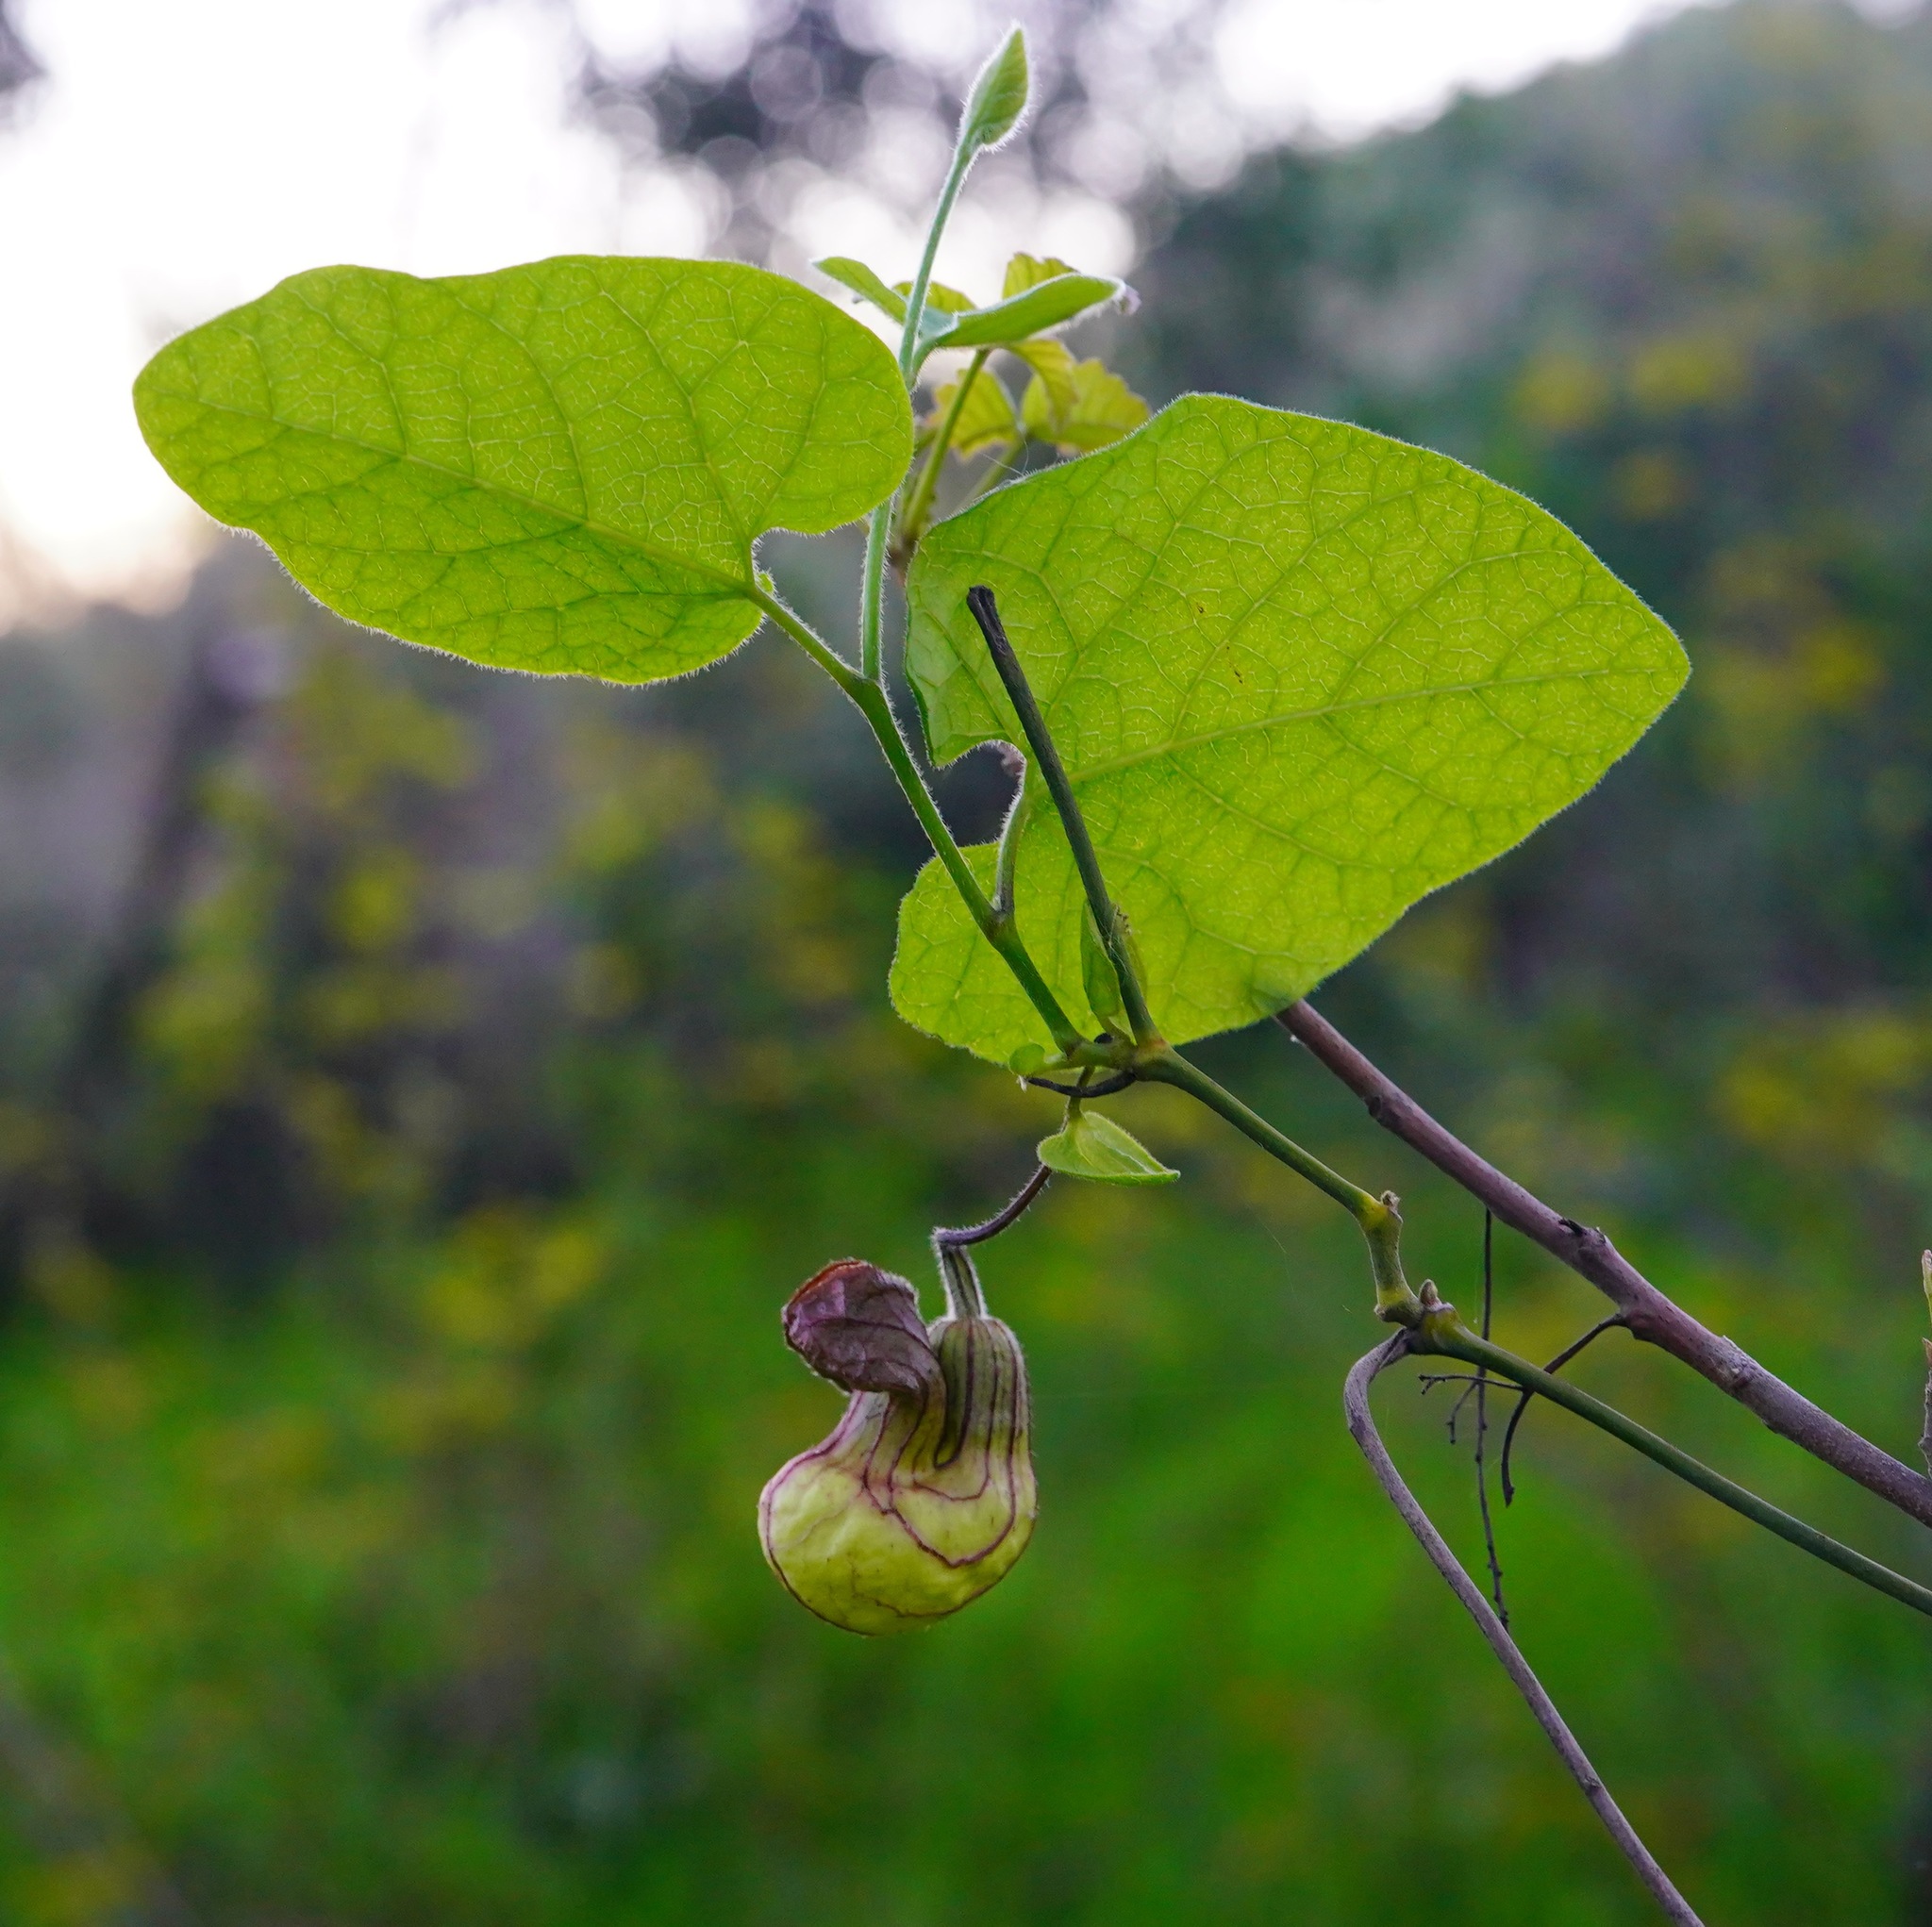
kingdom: Plantae
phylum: Tracheophyta
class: Magnoliopsida
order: Piperales
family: Aristolochiaceae
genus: Isotrema
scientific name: Isotrema californicum
